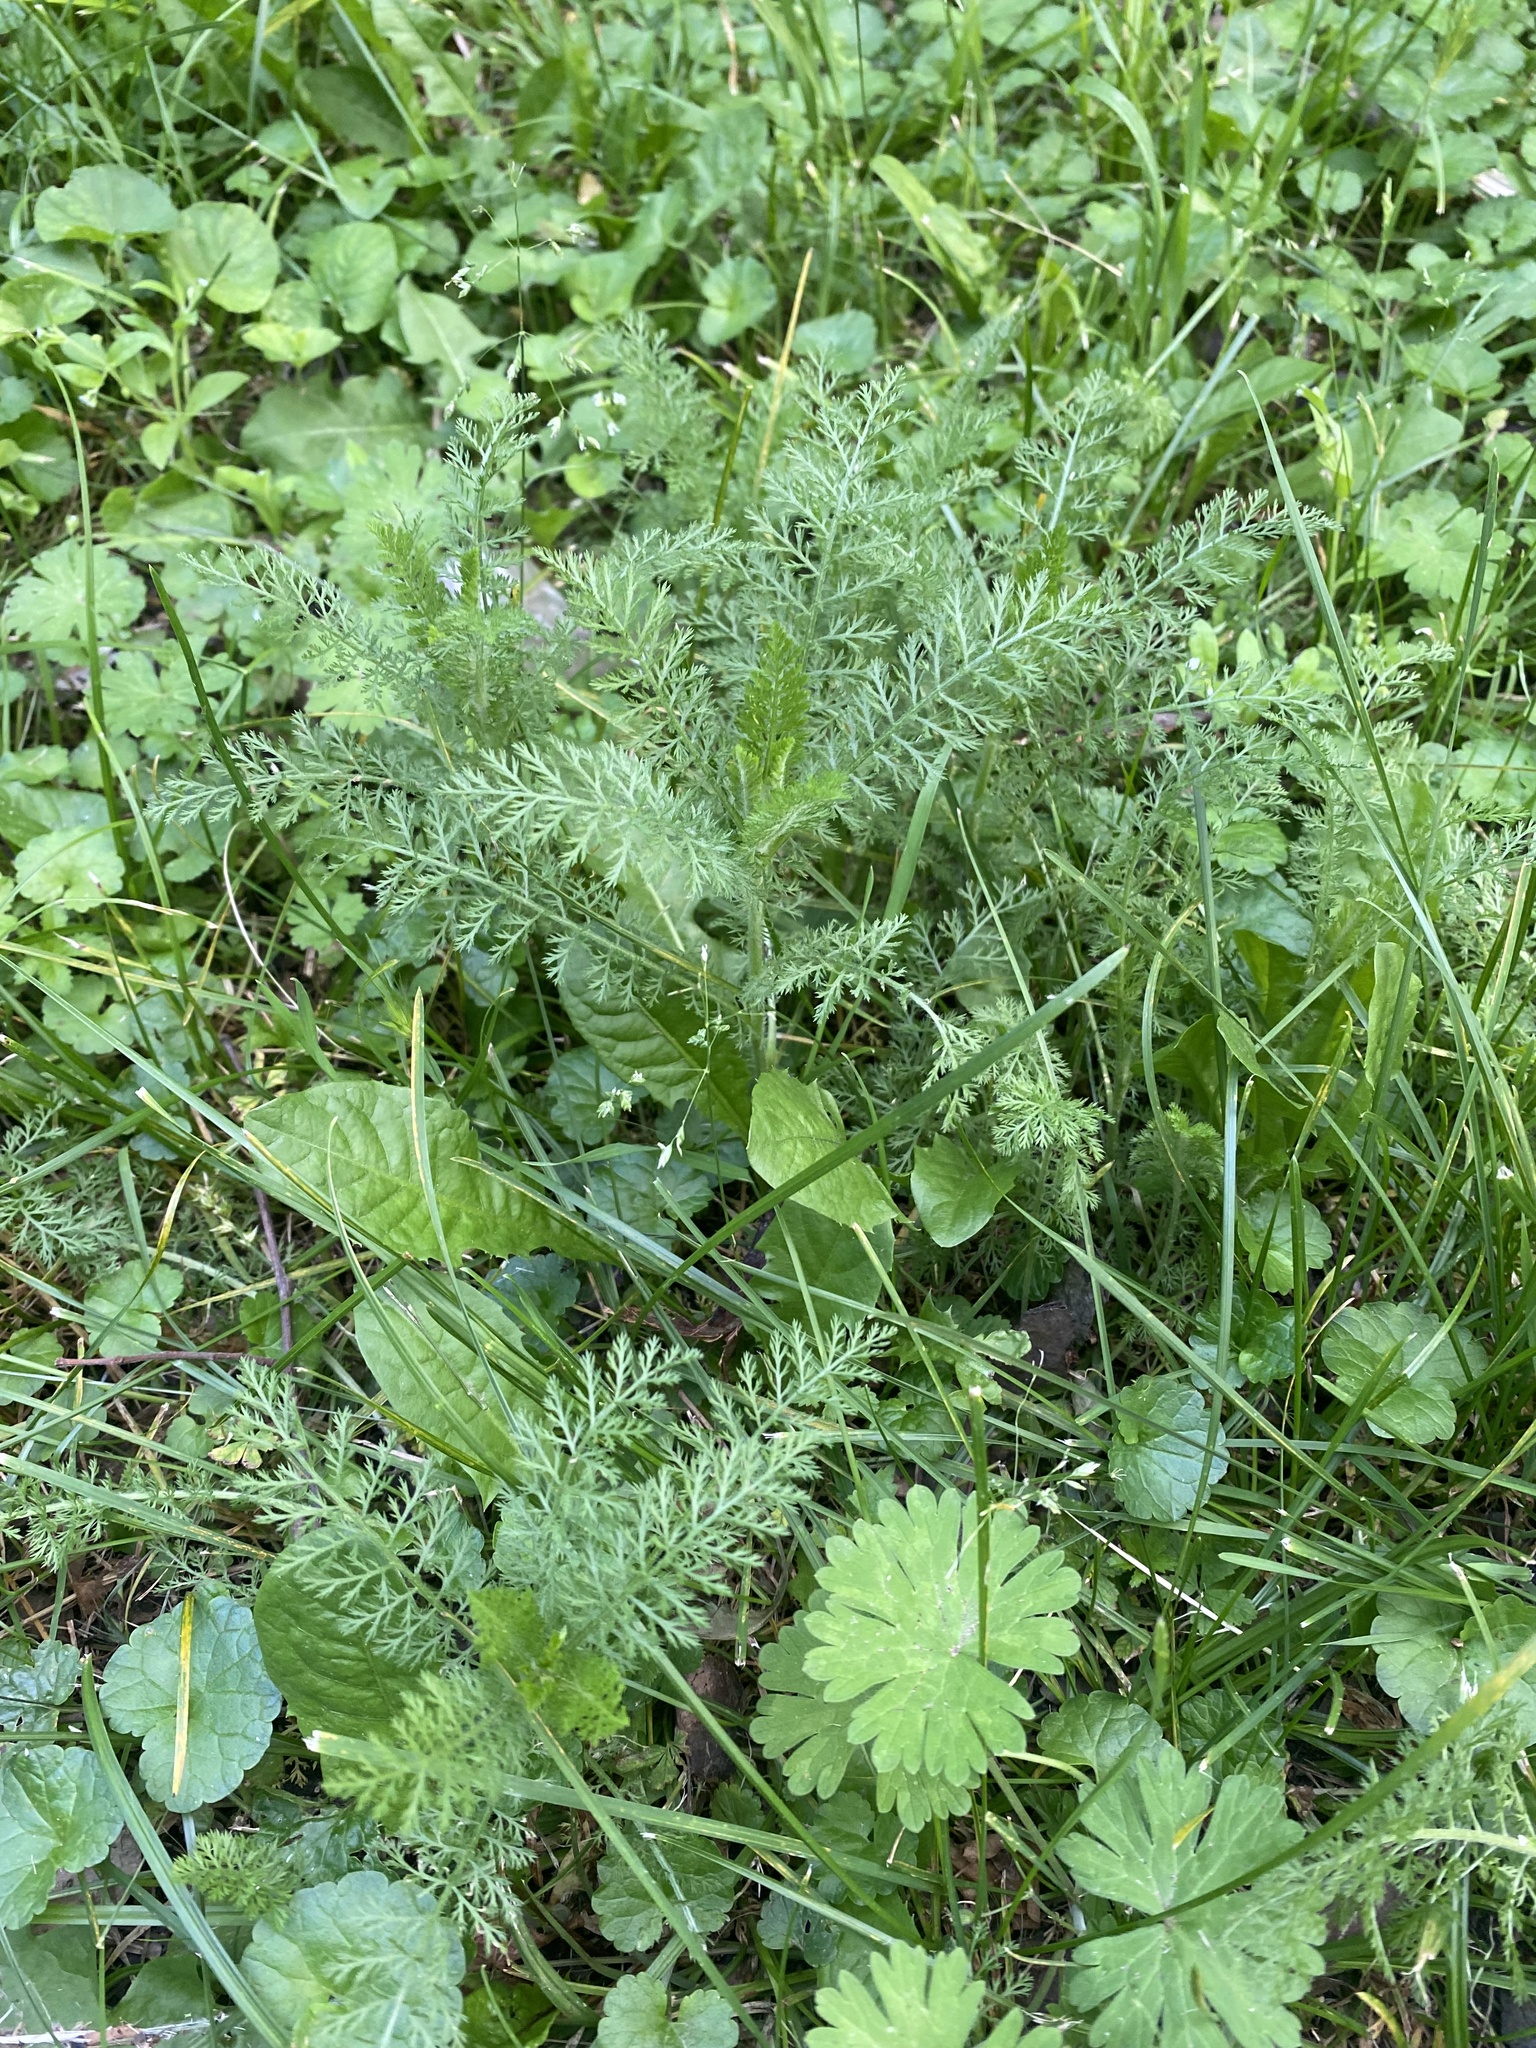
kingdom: Plantae
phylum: Tracheophyta
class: Magnoliopsida
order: Asterales
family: Asteraceae
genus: Achillea
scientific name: Achillea millefolium
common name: Yarrow
